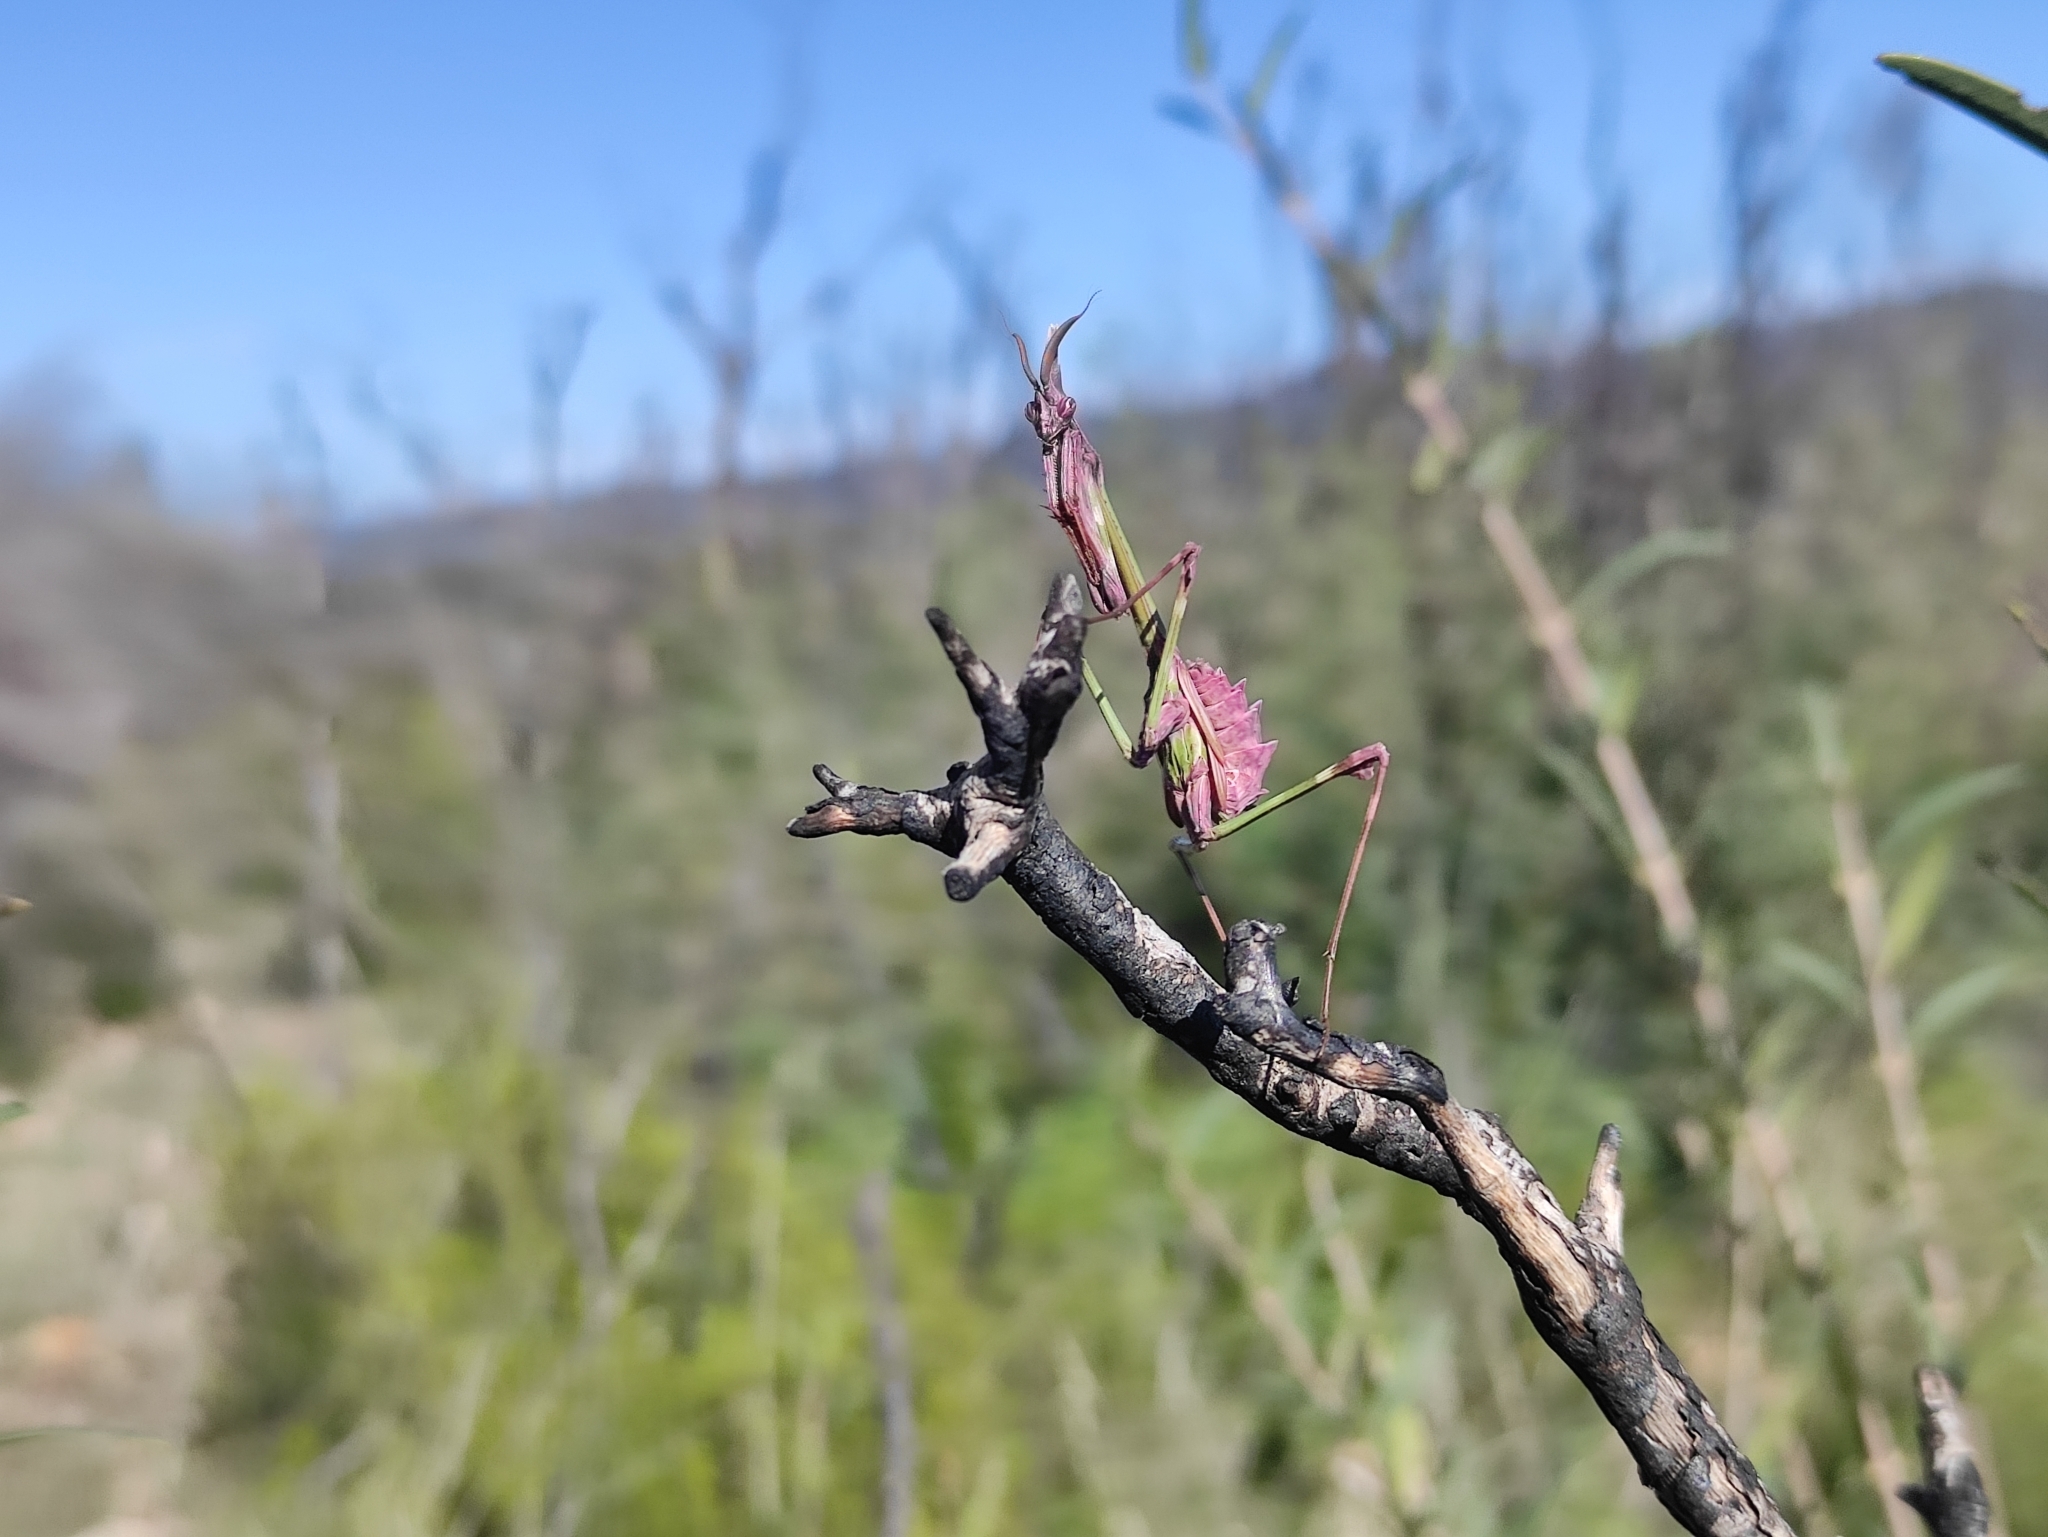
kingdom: Animalia
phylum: Arthropoda
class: Insecta
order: Mantodea
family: Empusidae
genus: Empusa
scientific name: Empusa pennata
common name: Conehead mantis
